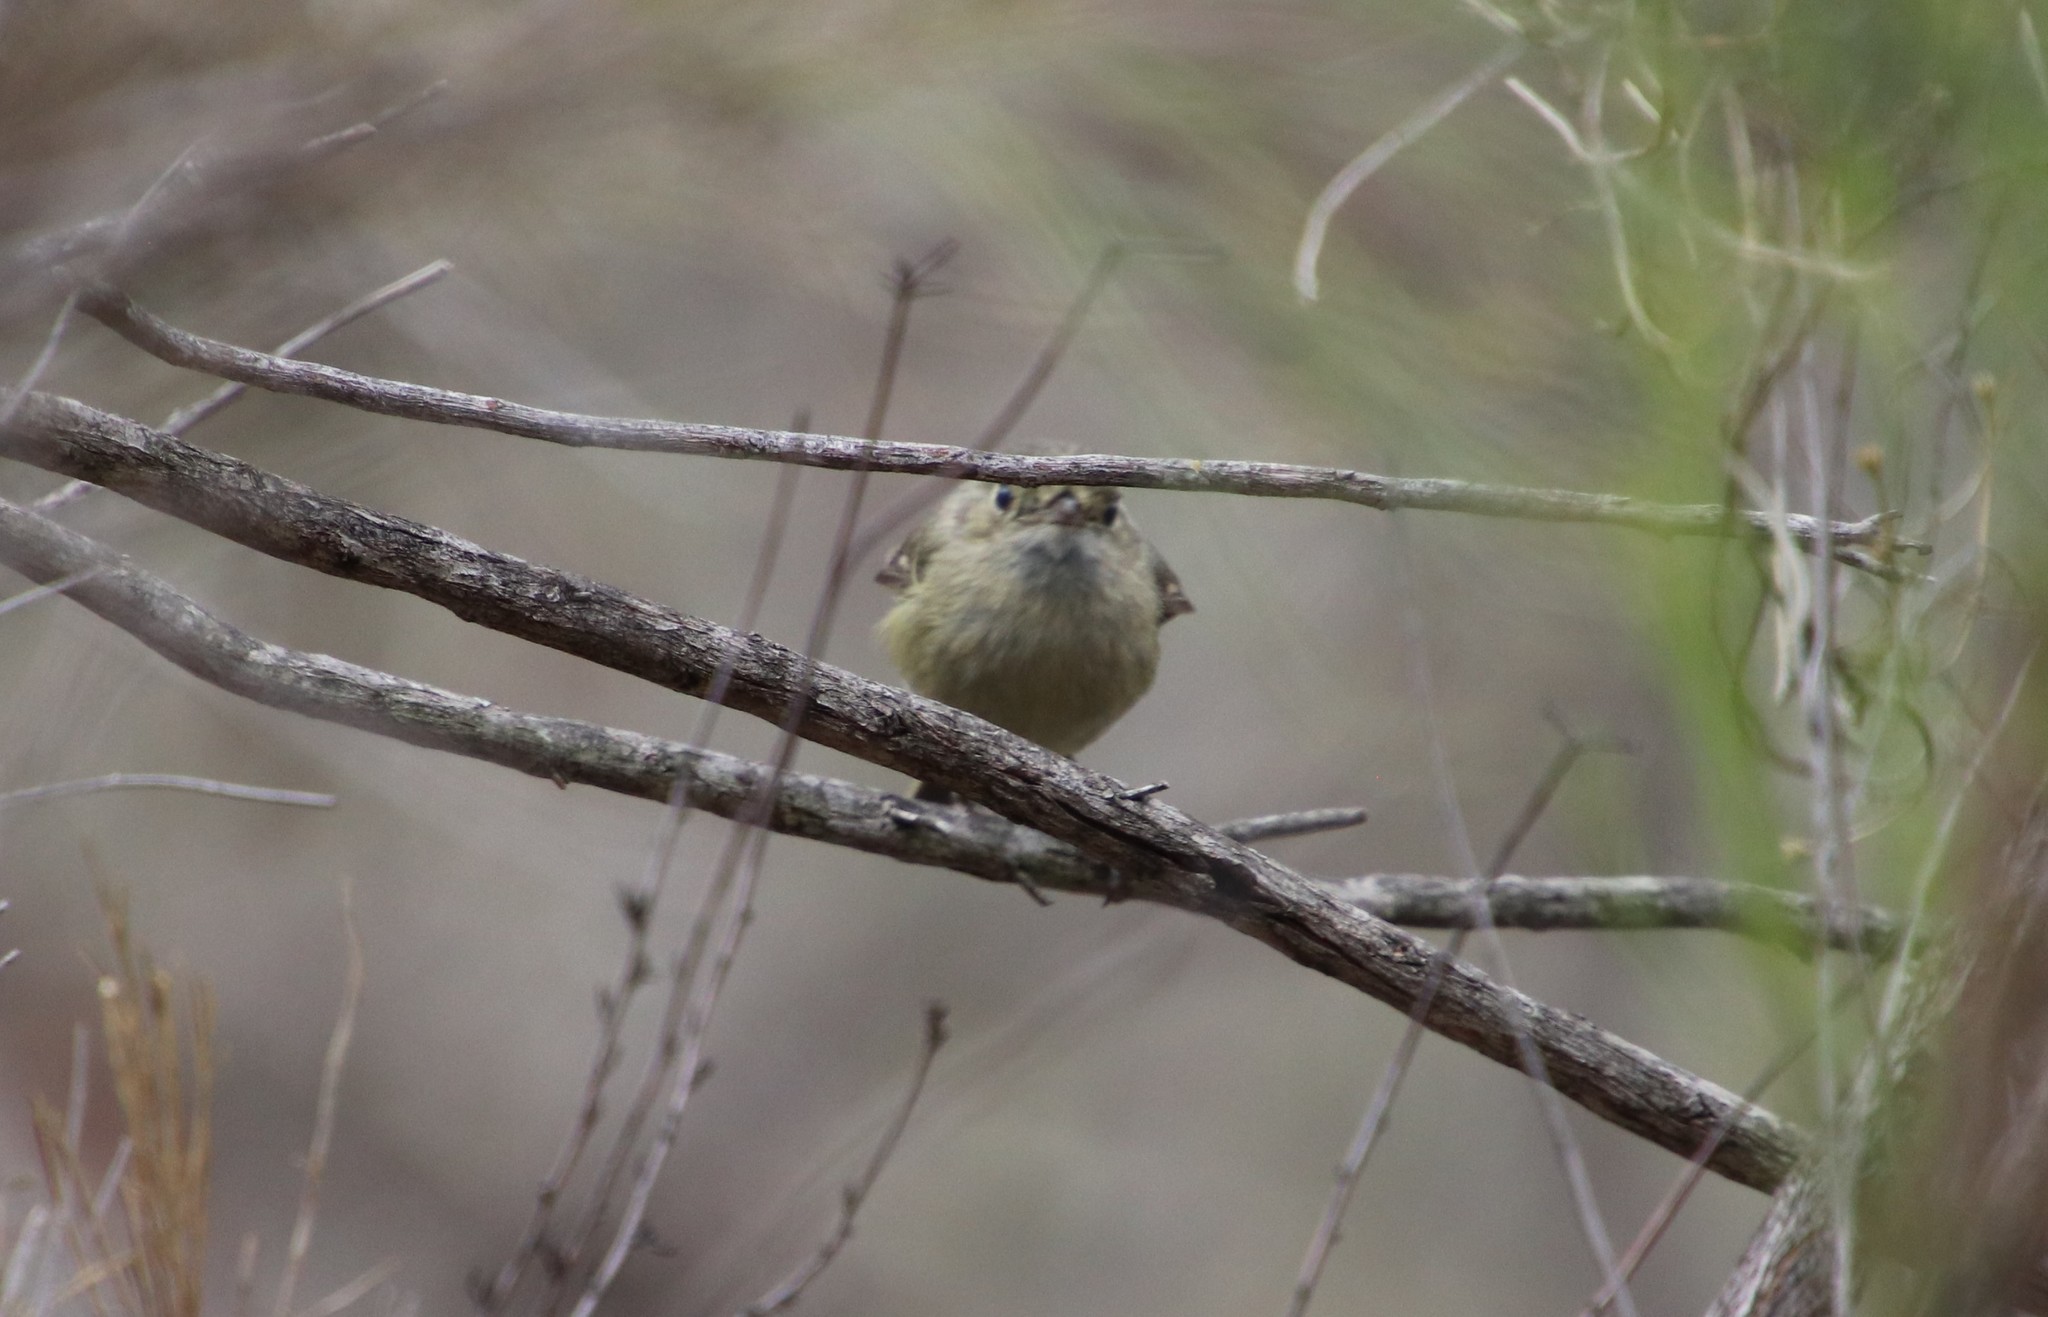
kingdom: Animalia
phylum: Chordata
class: Aves
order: Passeriformes
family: Vireonidae
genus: Vireo
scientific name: Vireo huttoni
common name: Hutton's vireo
